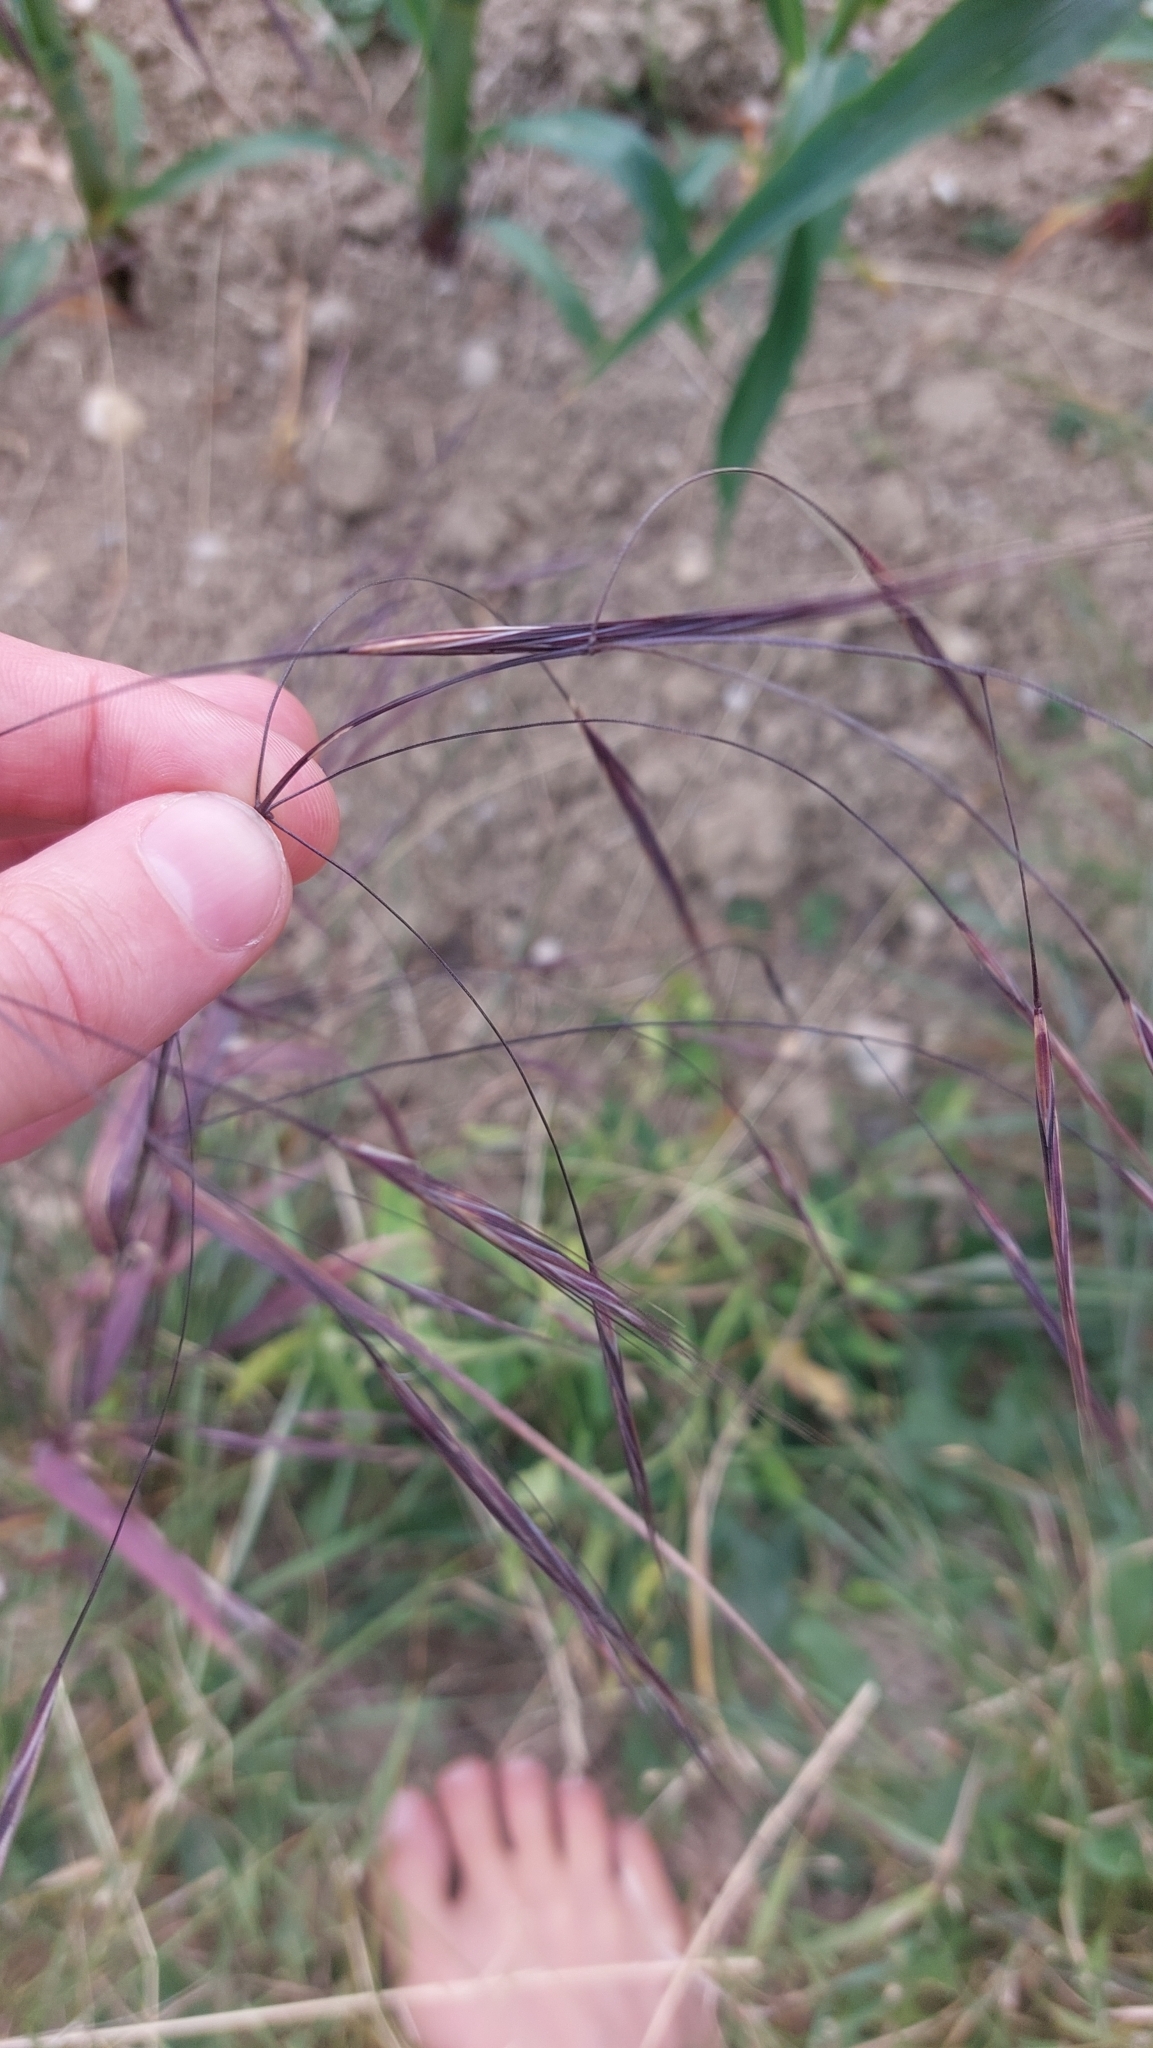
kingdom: Plantae
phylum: Tracheophyta
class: Liliopsida
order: Poales
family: Poaceae
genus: Bromus
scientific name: Bromus sterilis
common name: Poverty brome
